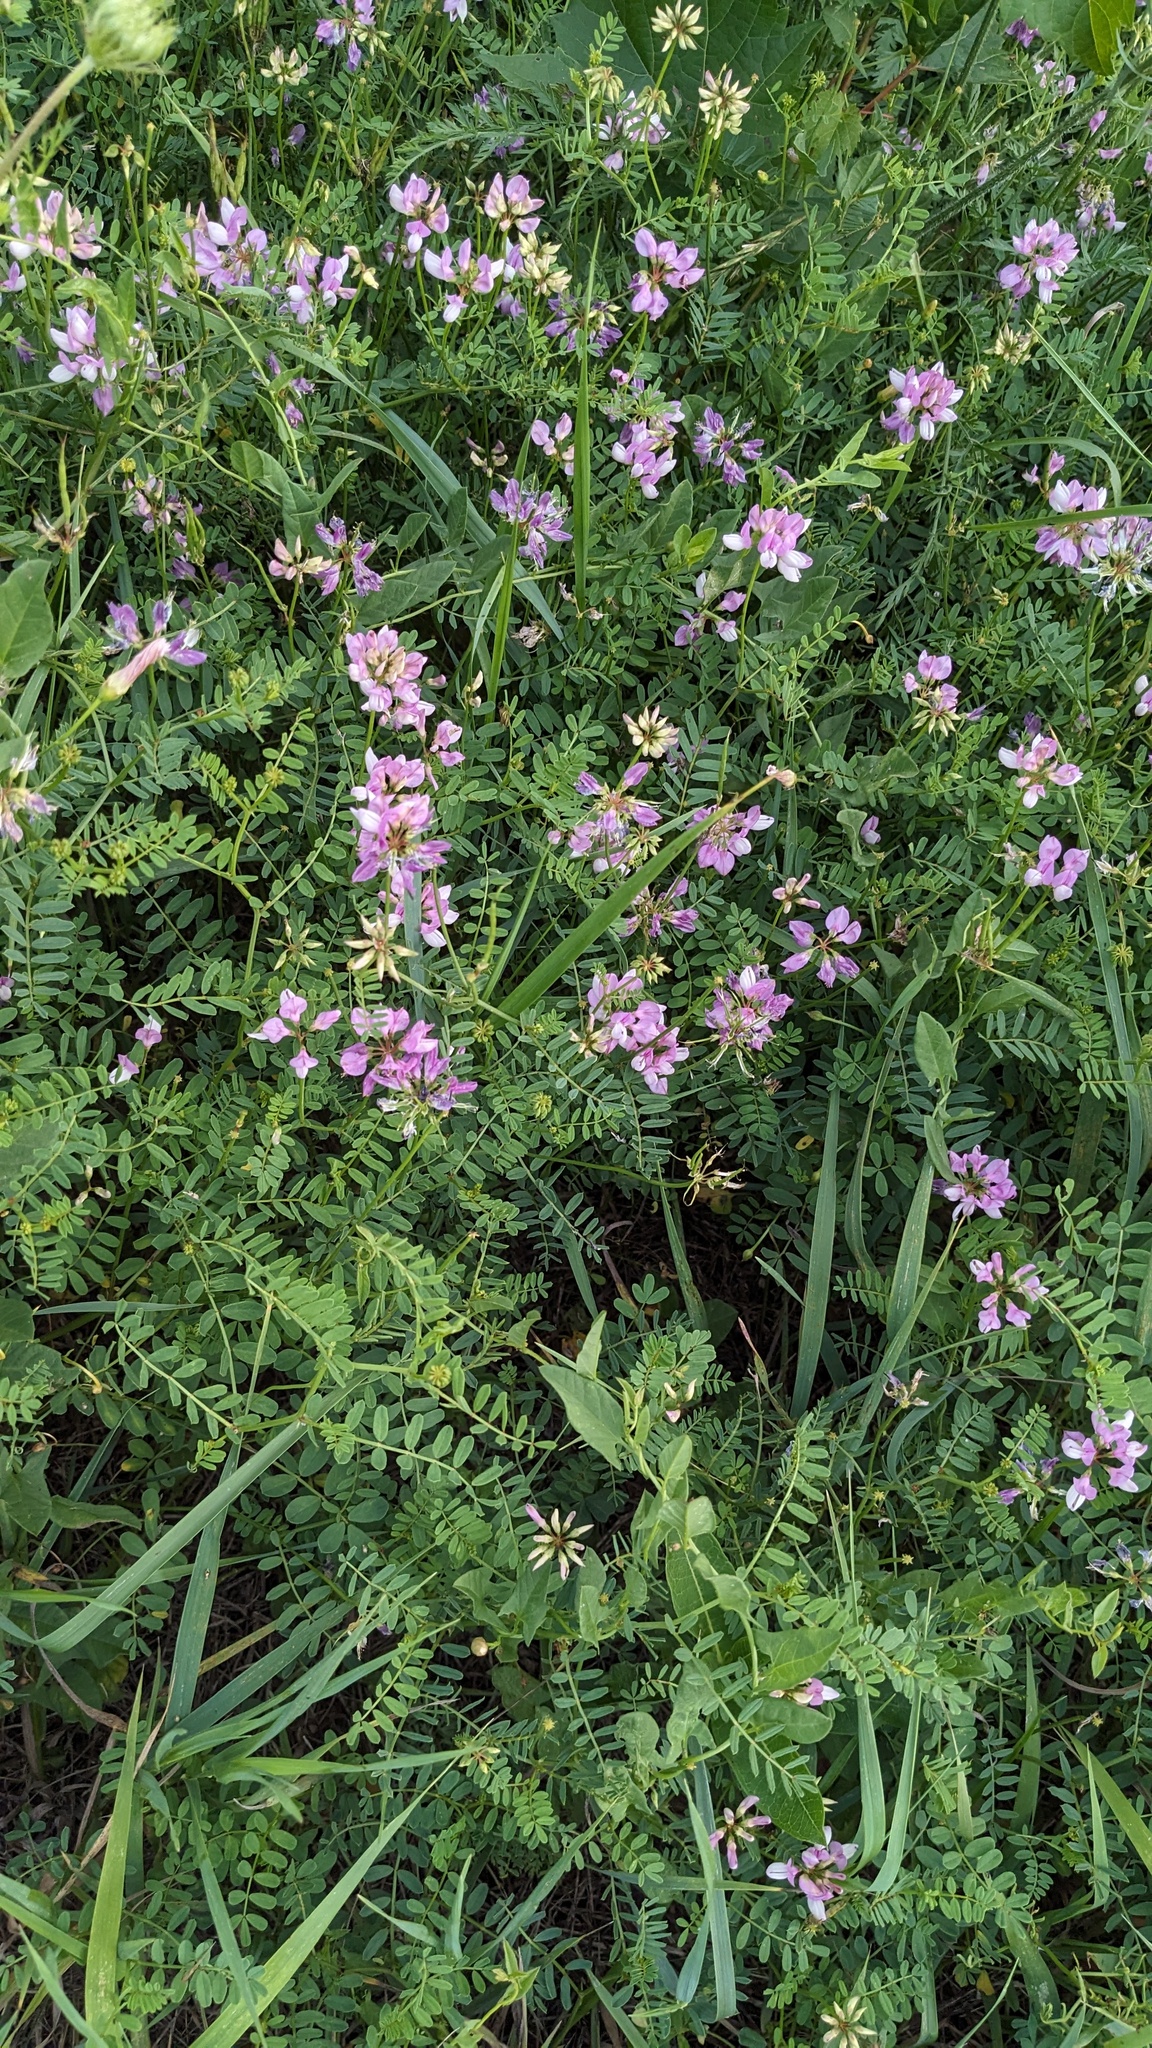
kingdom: Plantae
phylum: Tracheophyta
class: Magnoliopsida
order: Fabales
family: Fabaceae
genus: Coronilla
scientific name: Coronilla varia
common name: Crownvetch
